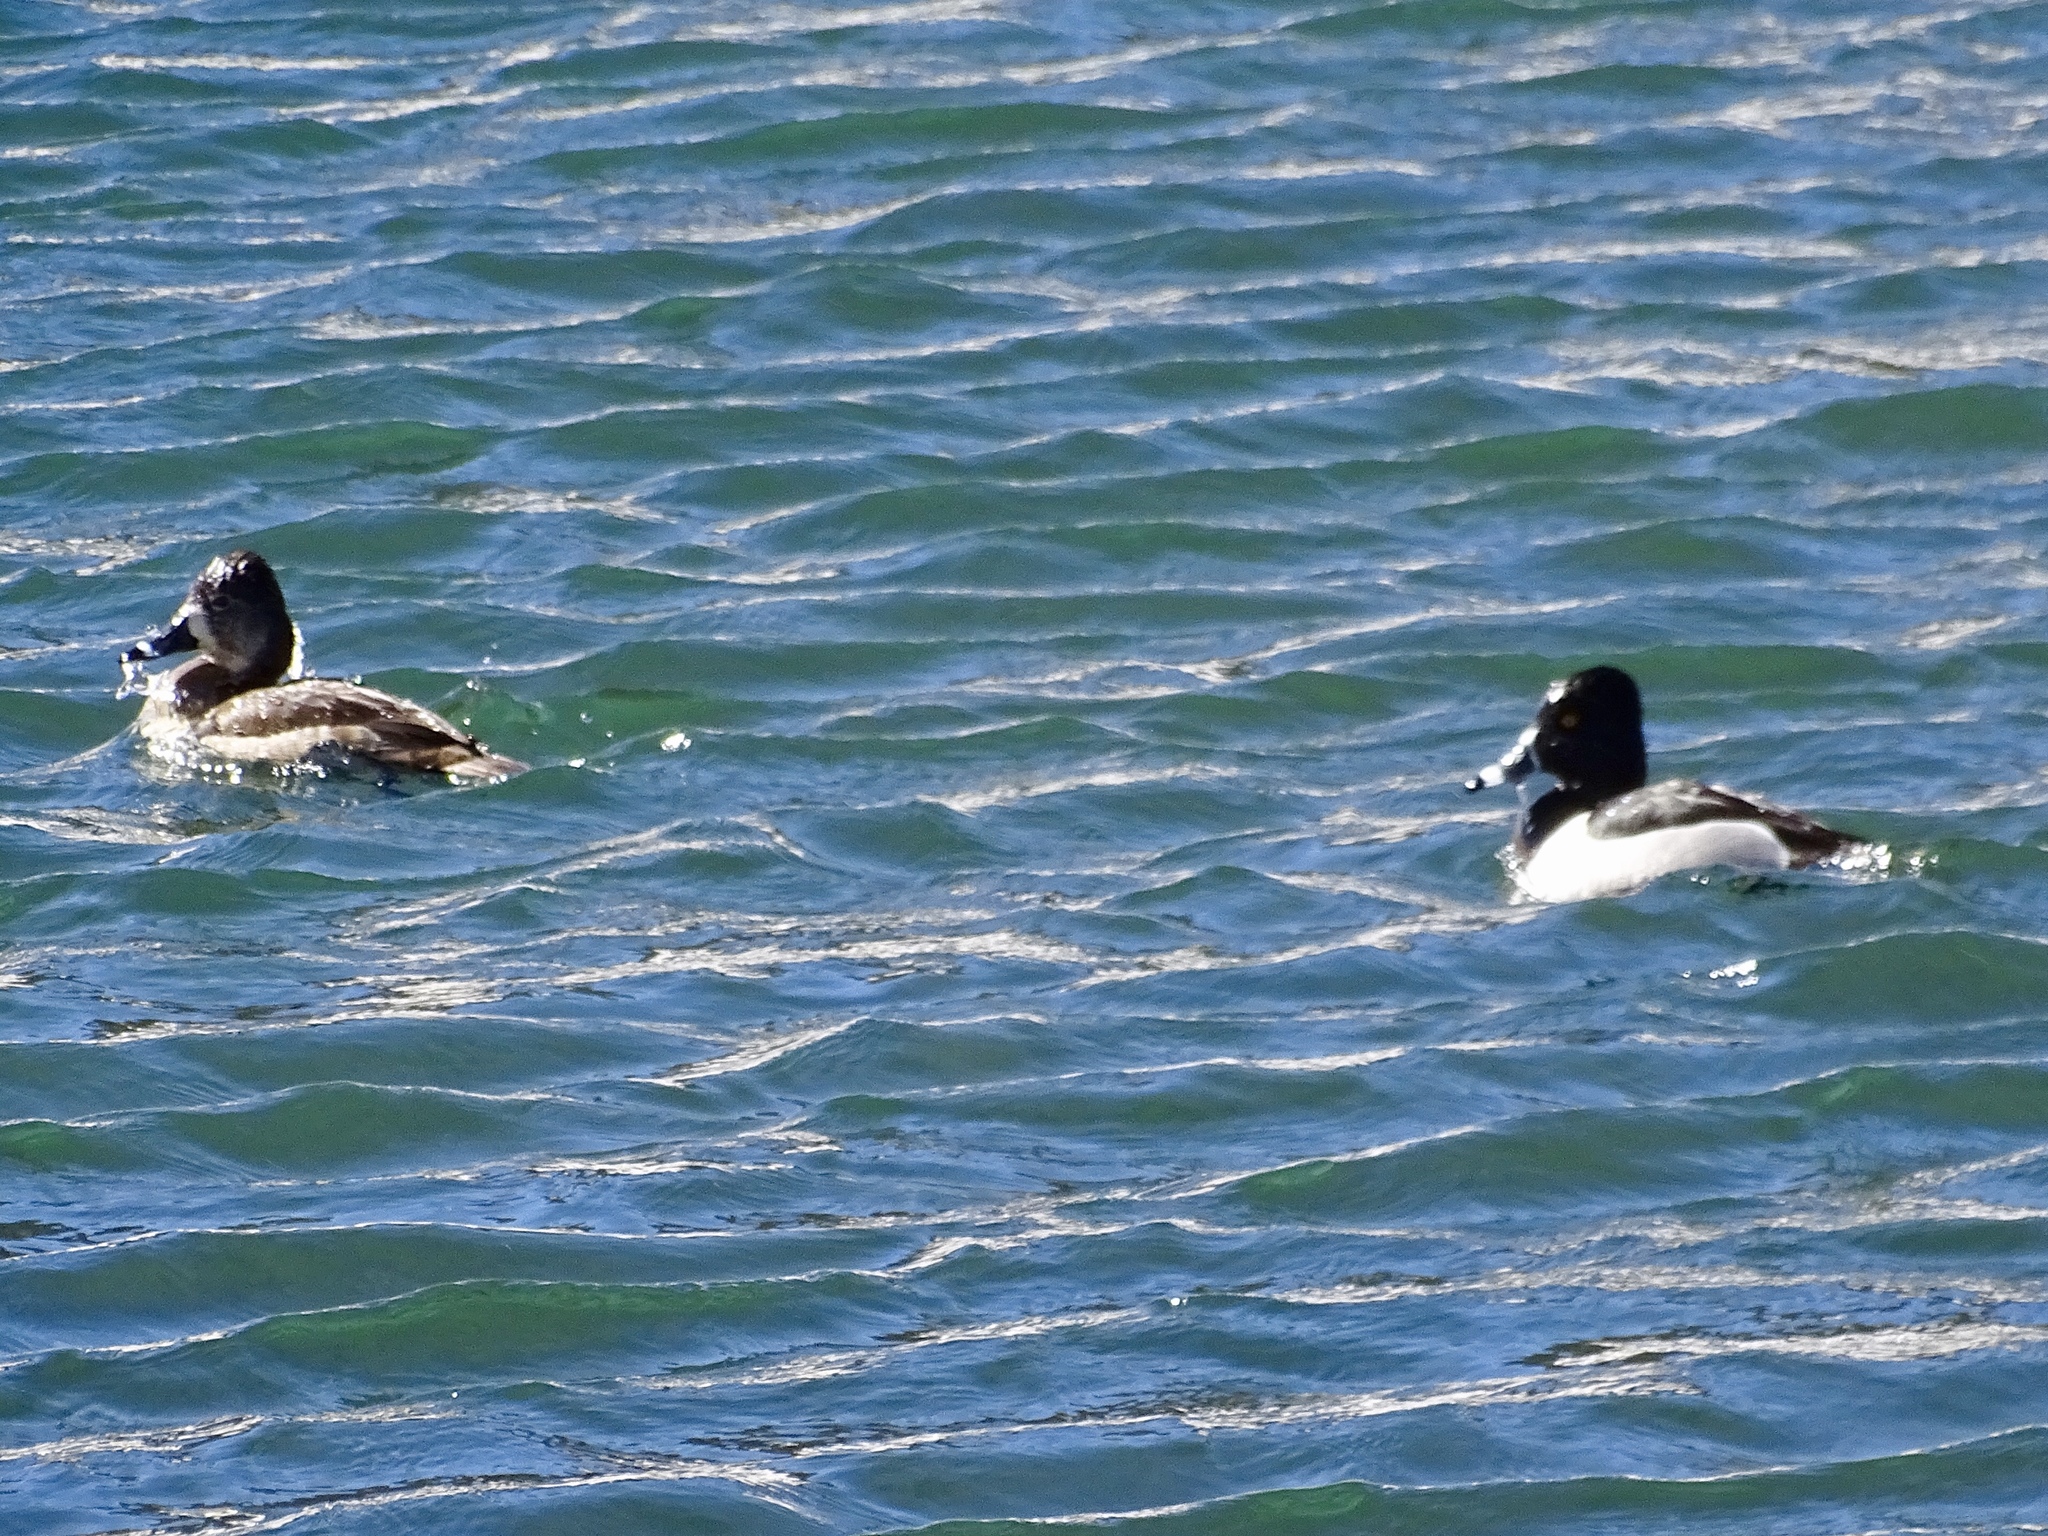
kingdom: Animalia
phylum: Chordata
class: Aves
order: Anseriformes
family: Anatidae
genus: Aythya
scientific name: Aythya collaris
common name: Ring-necked duck
